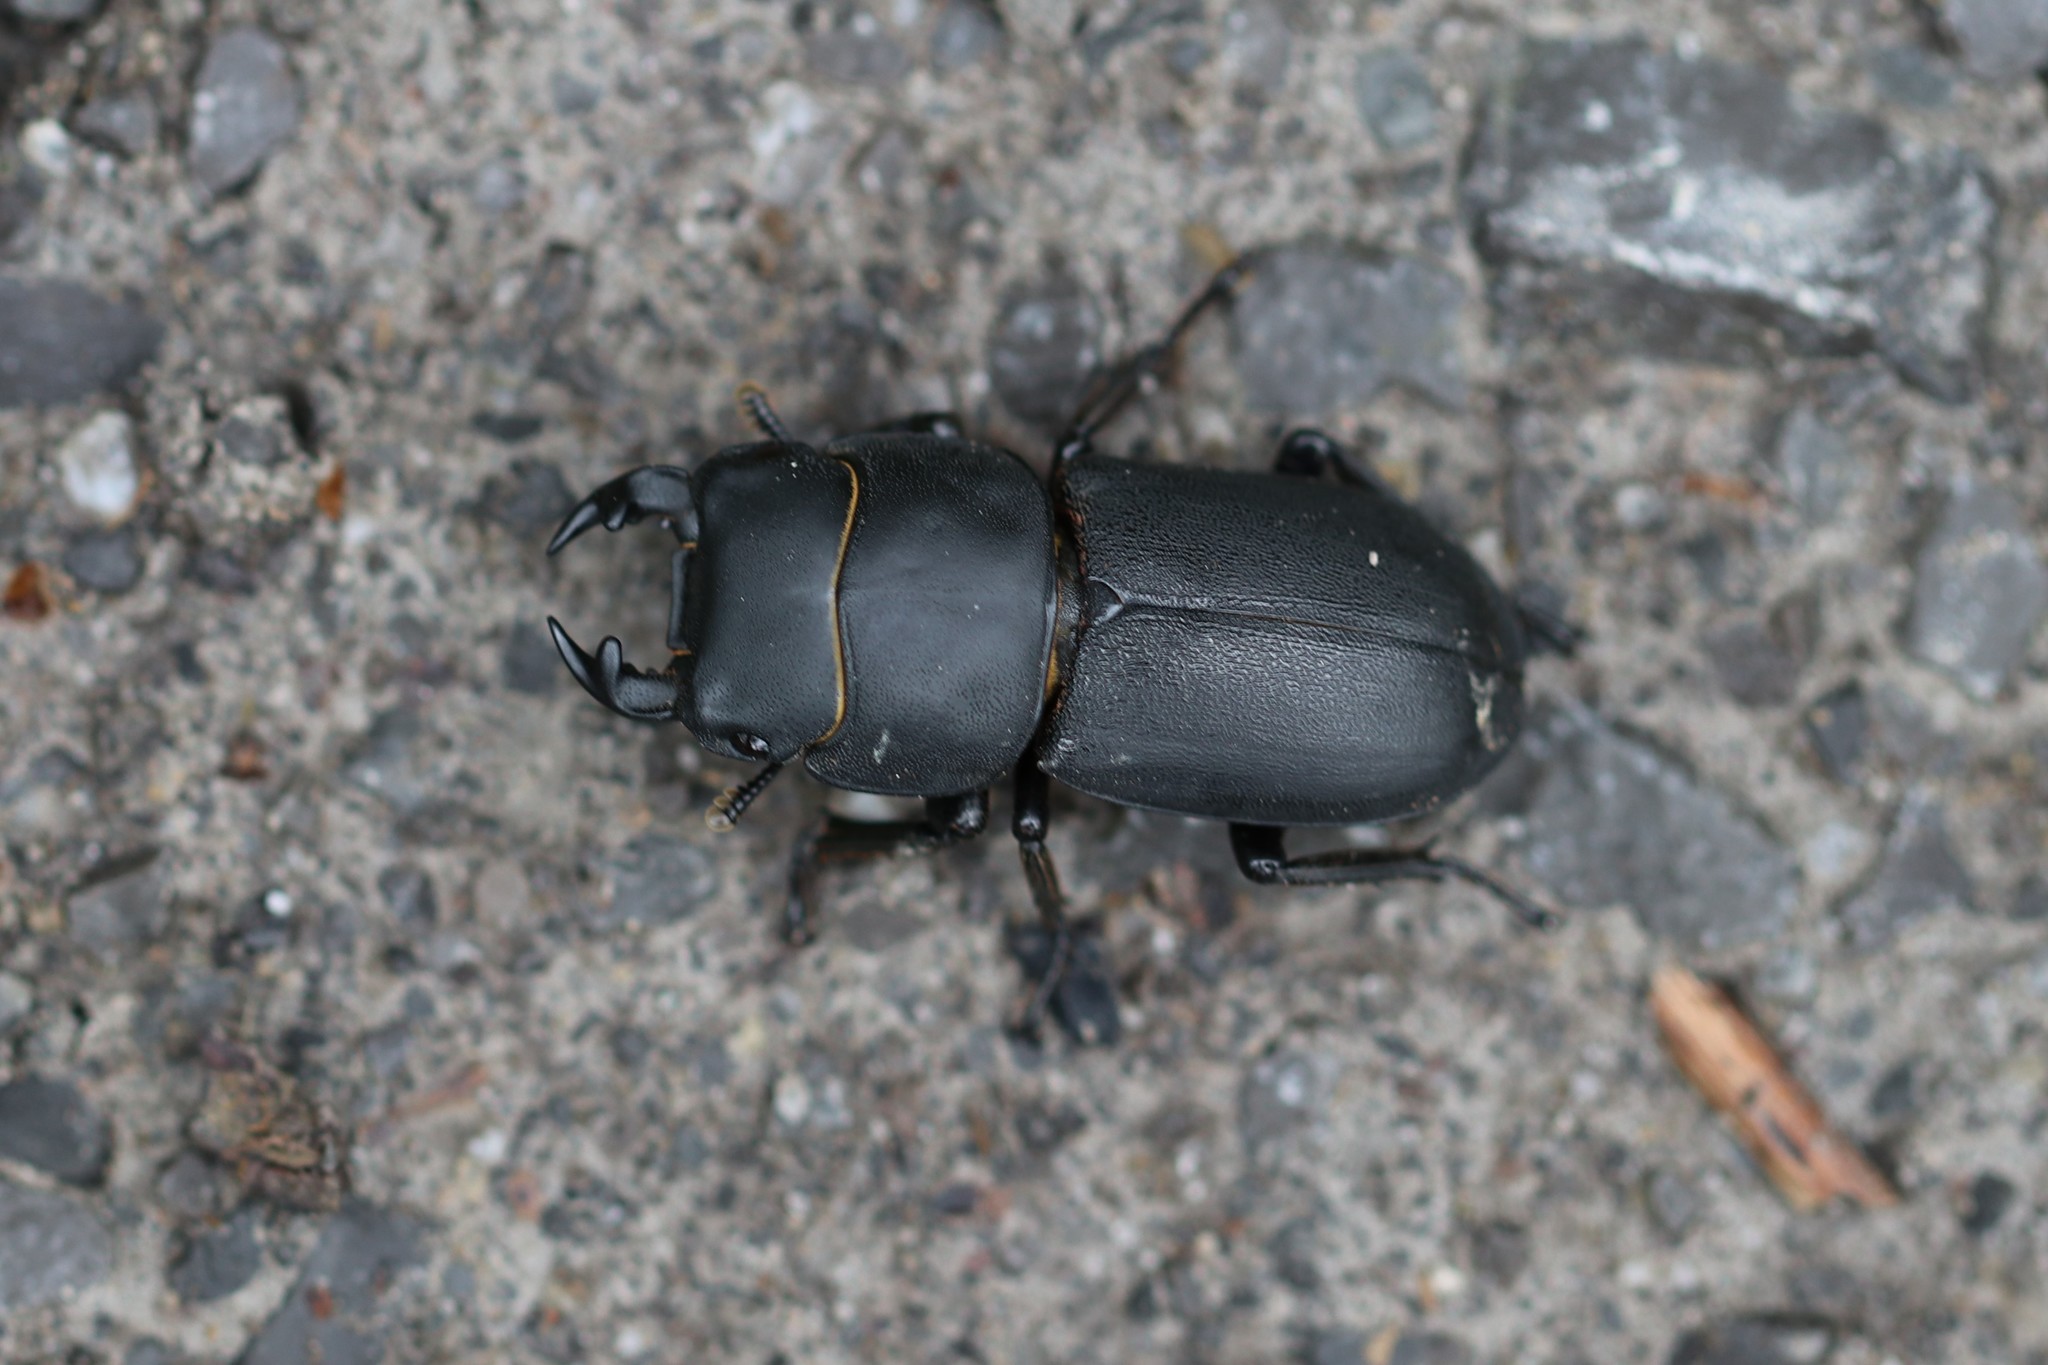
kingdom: Animalia
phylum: Arthropoda
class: Insecta
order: Coleoptera
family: Lucanidae
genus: Dorcus
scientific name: Dorcus parallelipipedus
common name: Lesser stag beetle
